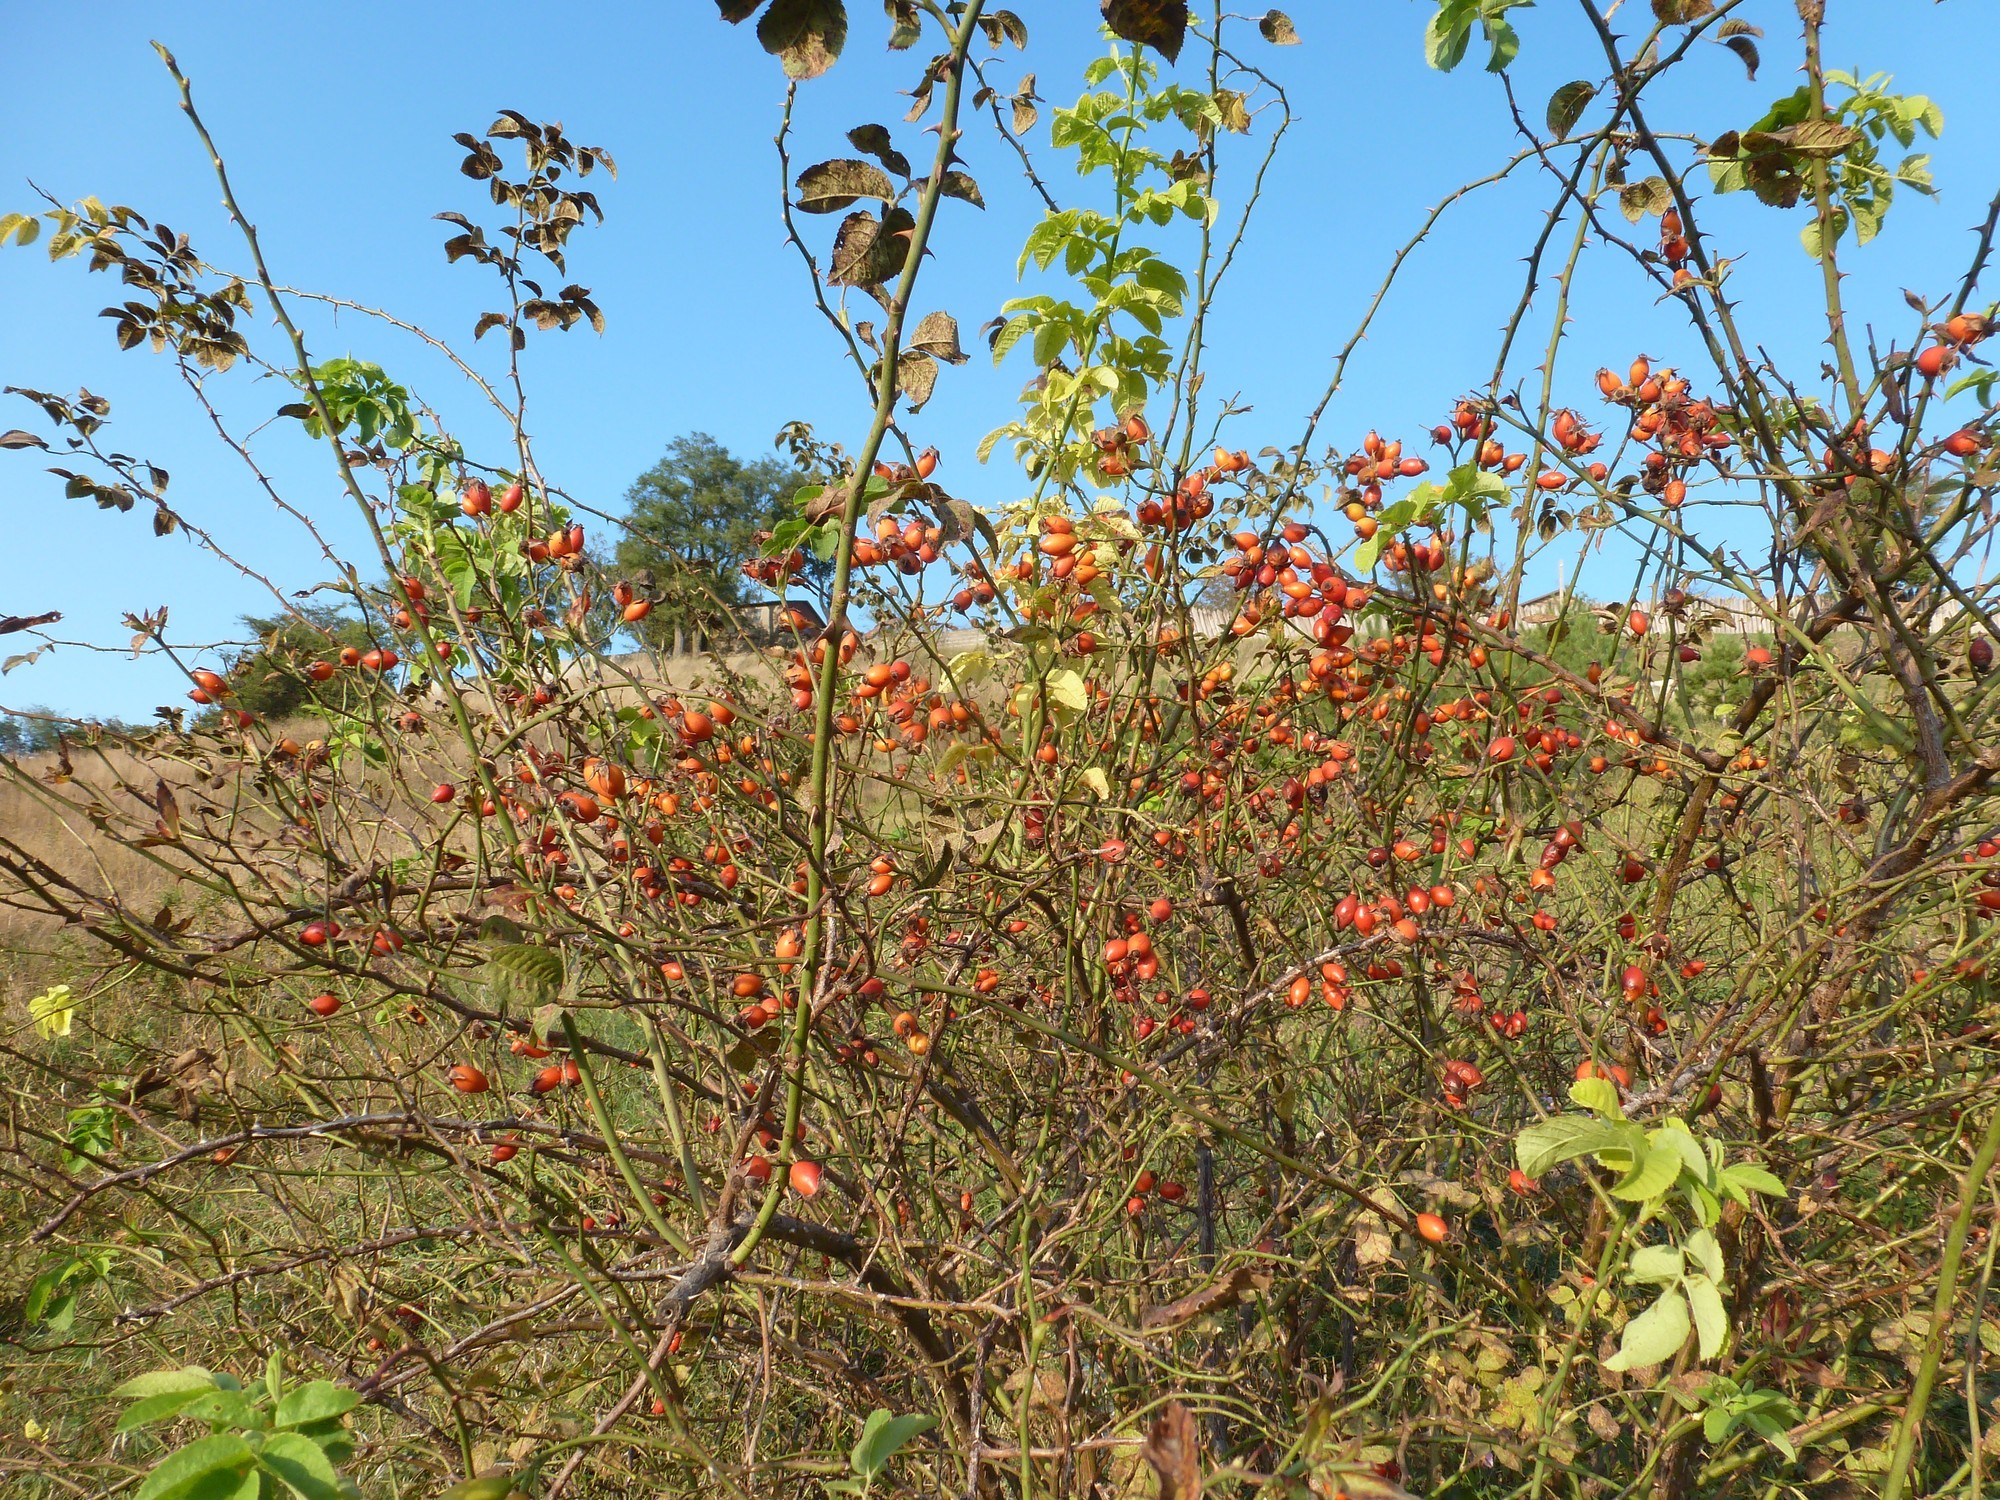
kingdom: Plantae
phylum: Tracheophyta
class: Magnoliopsida
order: Rosales
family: Rosaceae
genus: Rosa
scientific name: Rosa corymbifera
